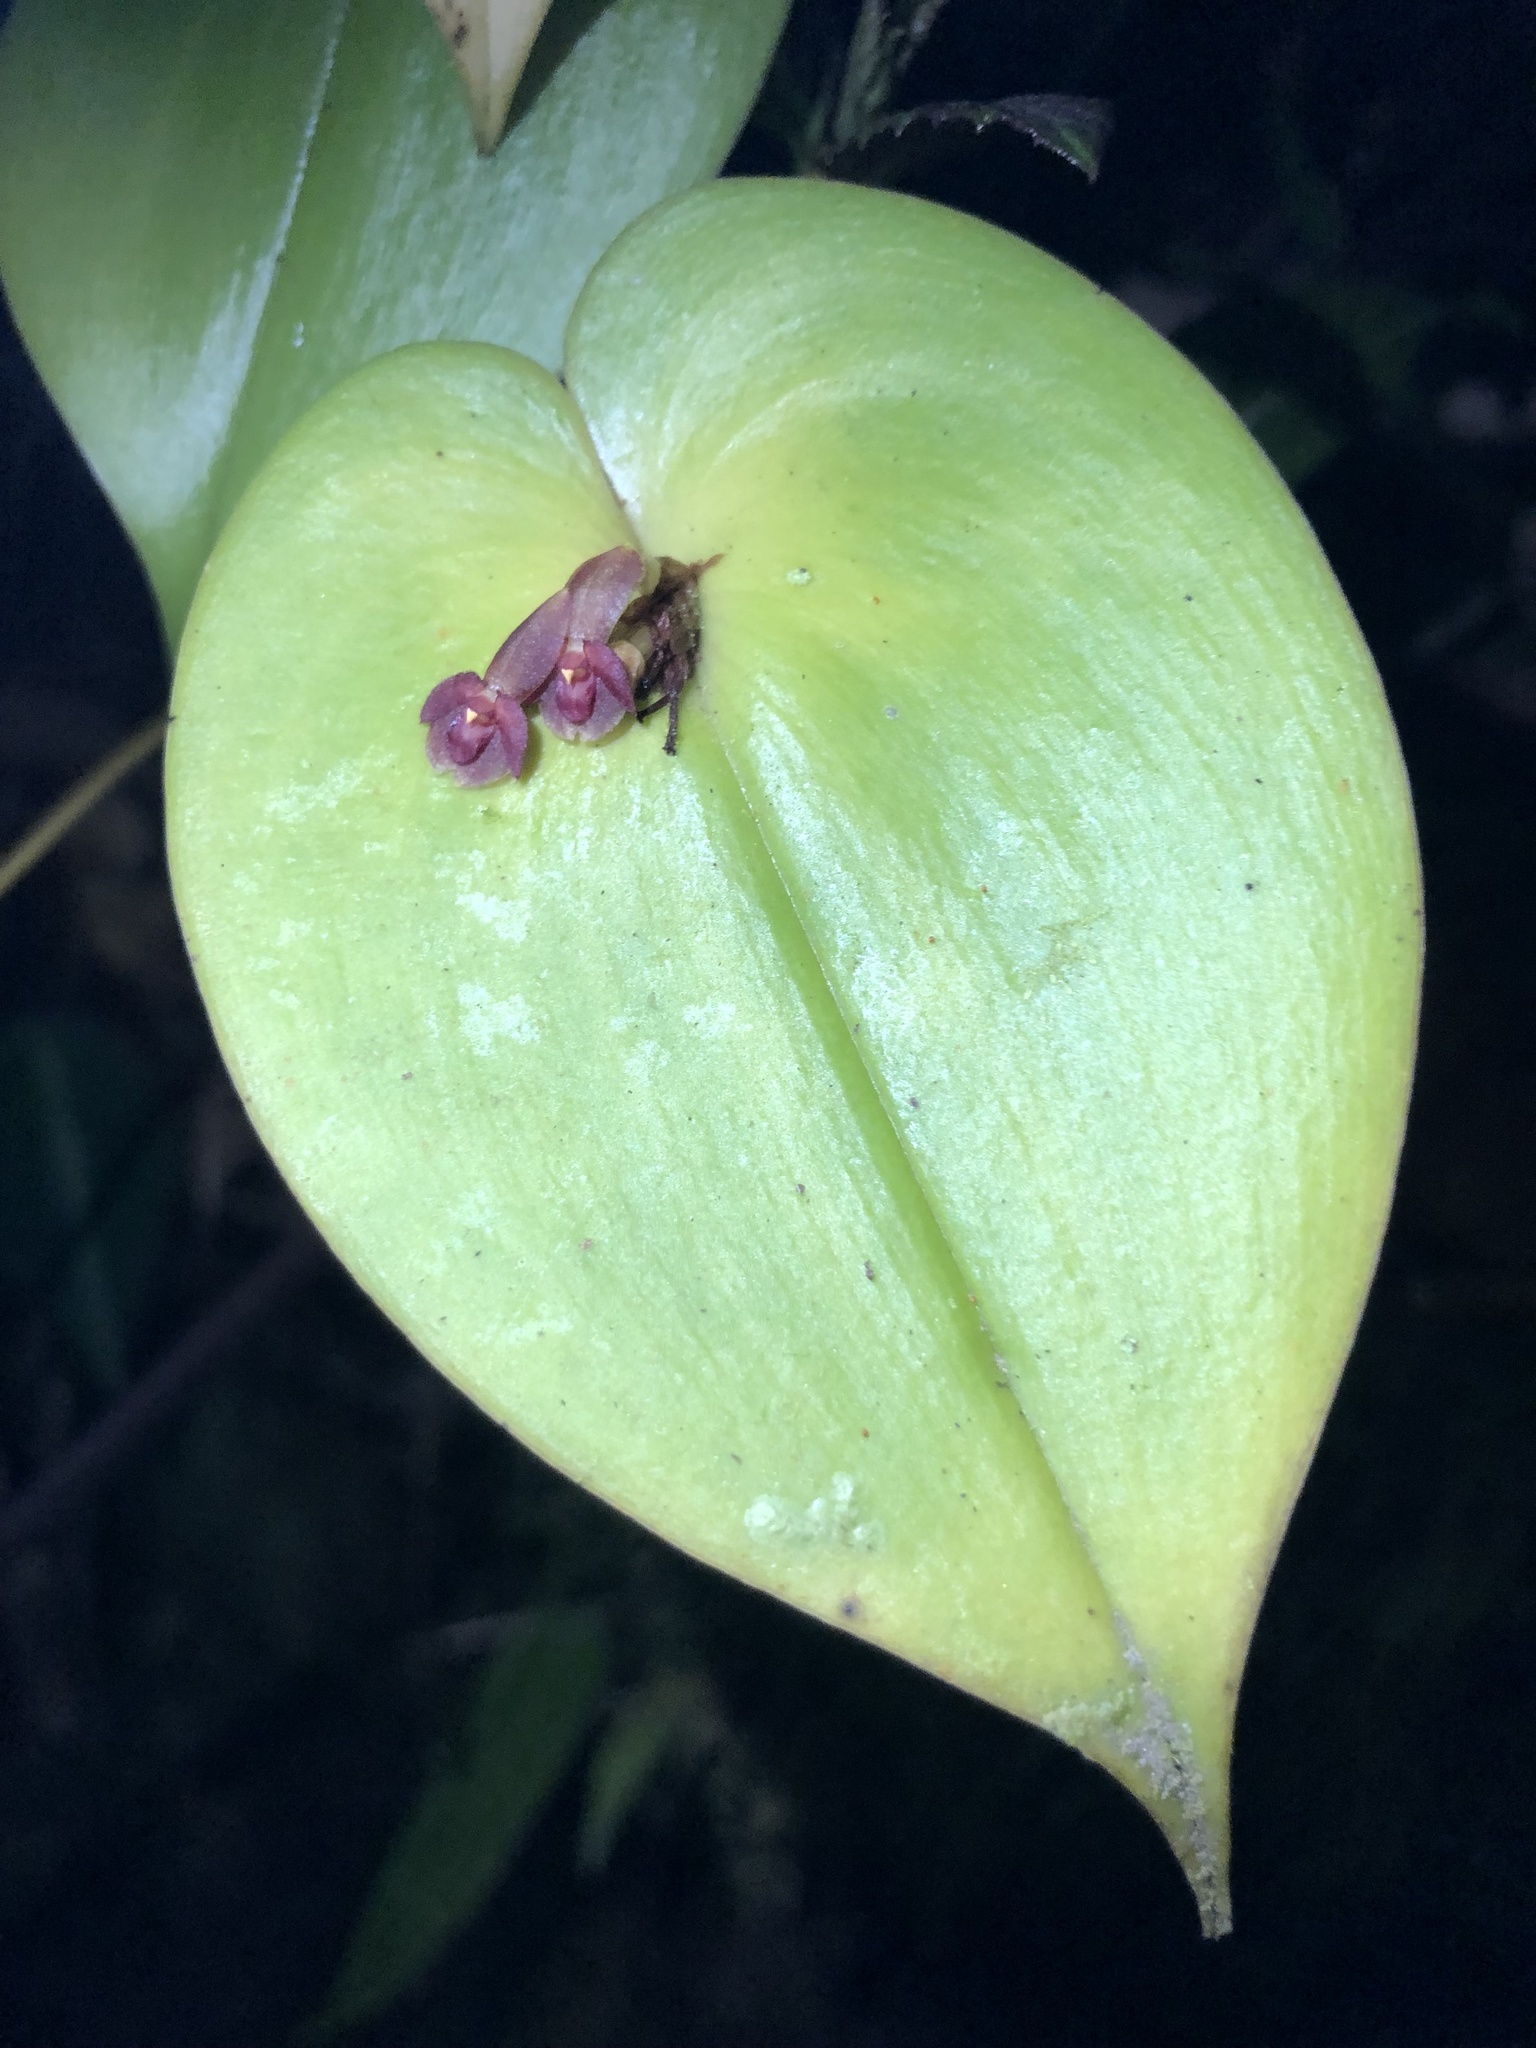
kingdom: Plantae
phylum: Tracheophyta
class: Liliopsida
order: Asparagales
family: Orchidaceae
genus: Pleurothallis
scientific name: Pleurothallis cordata
